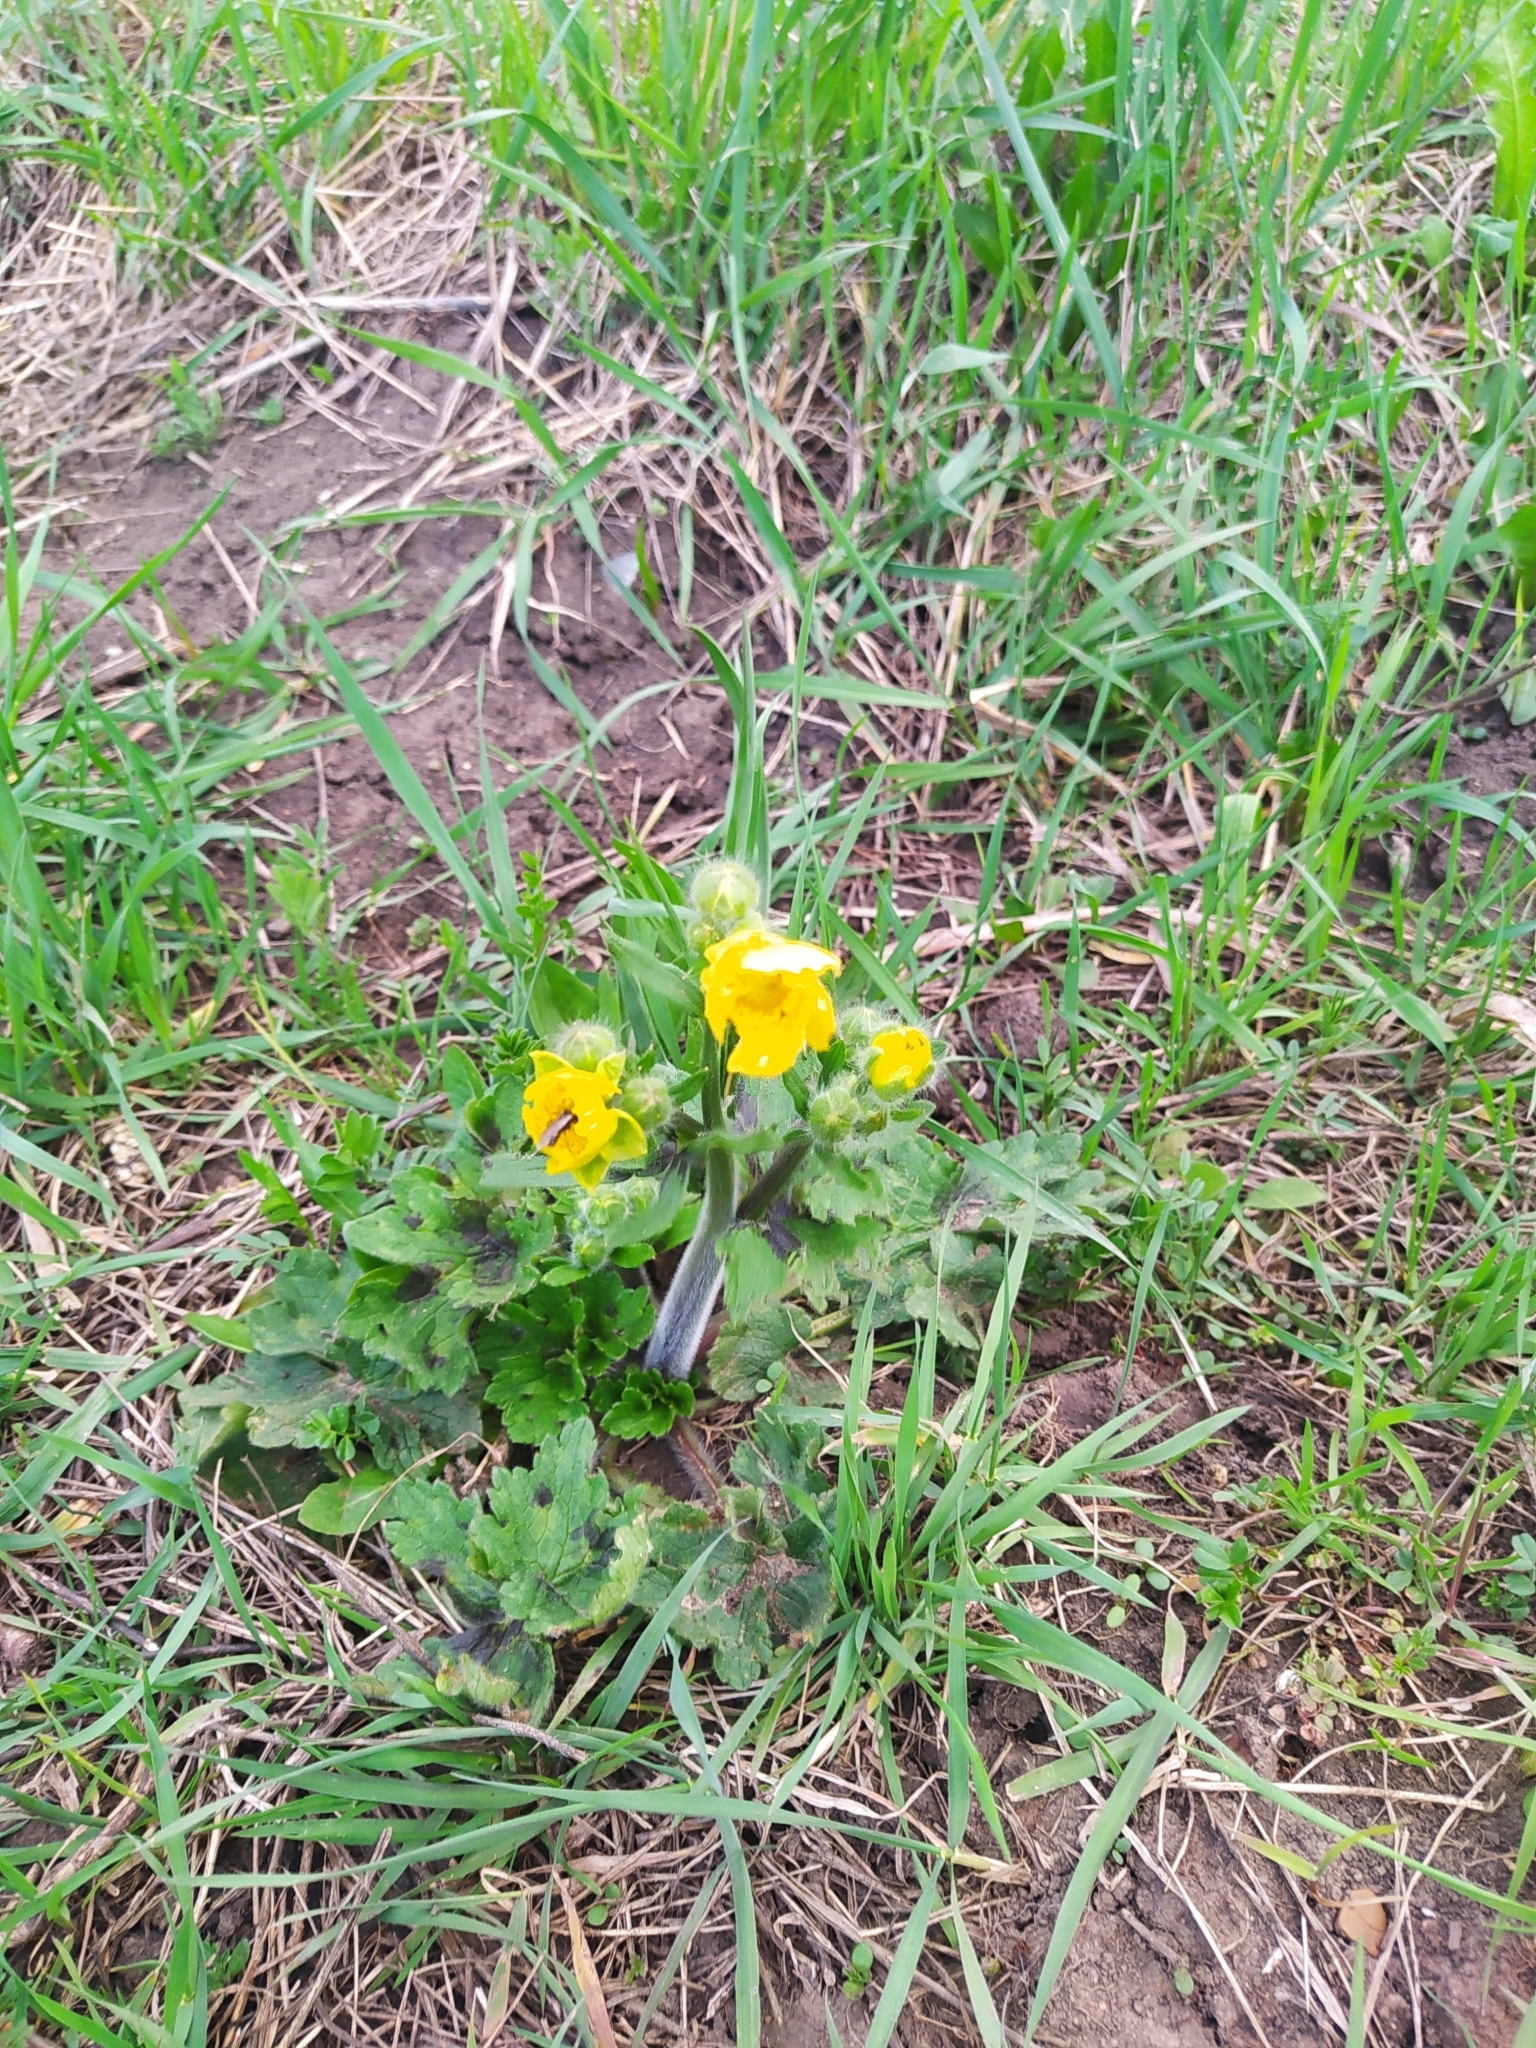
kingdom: Plantae
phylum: Tracheophyta
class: Magnoliopsida
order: Ranunculales
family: Ranunculaceae
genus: Ranunculus
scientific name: Ranunculus constantinopolitanus
